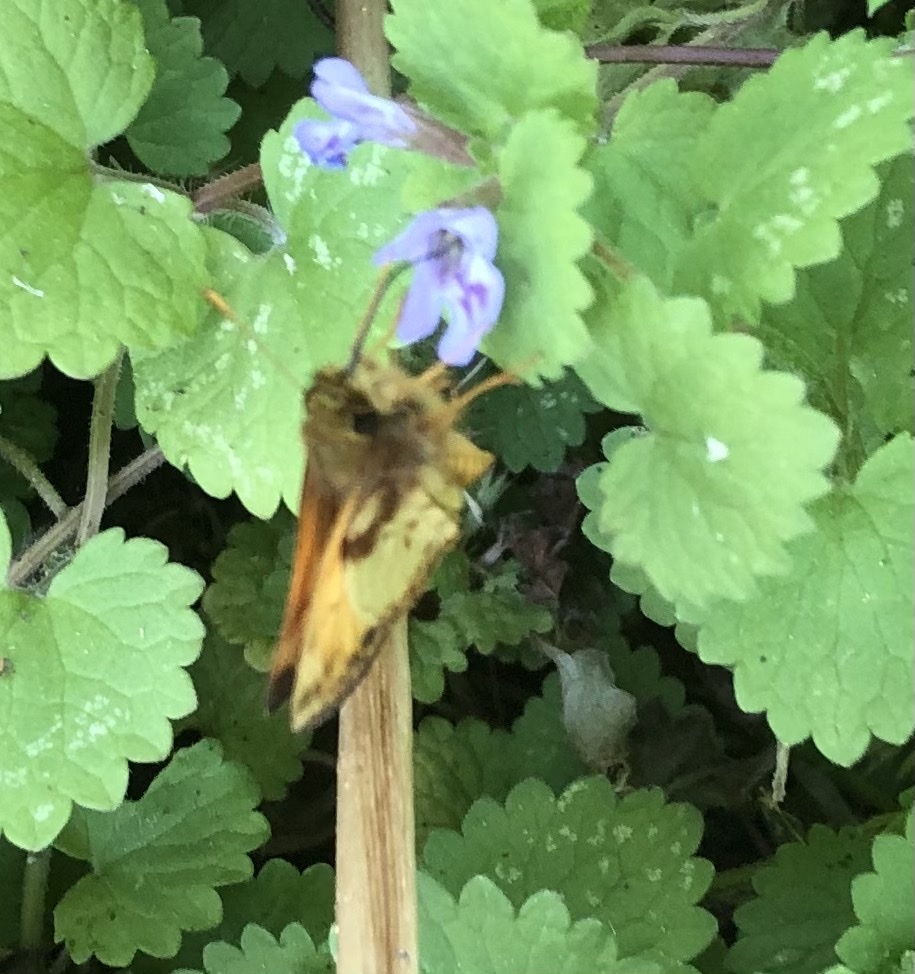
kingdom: Animalia
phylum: Arthropoda
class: Insecta
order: Lepidoptera
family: Hesperiidae
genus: Lon
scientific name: Lon zabulon
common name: Zabulon skipper
